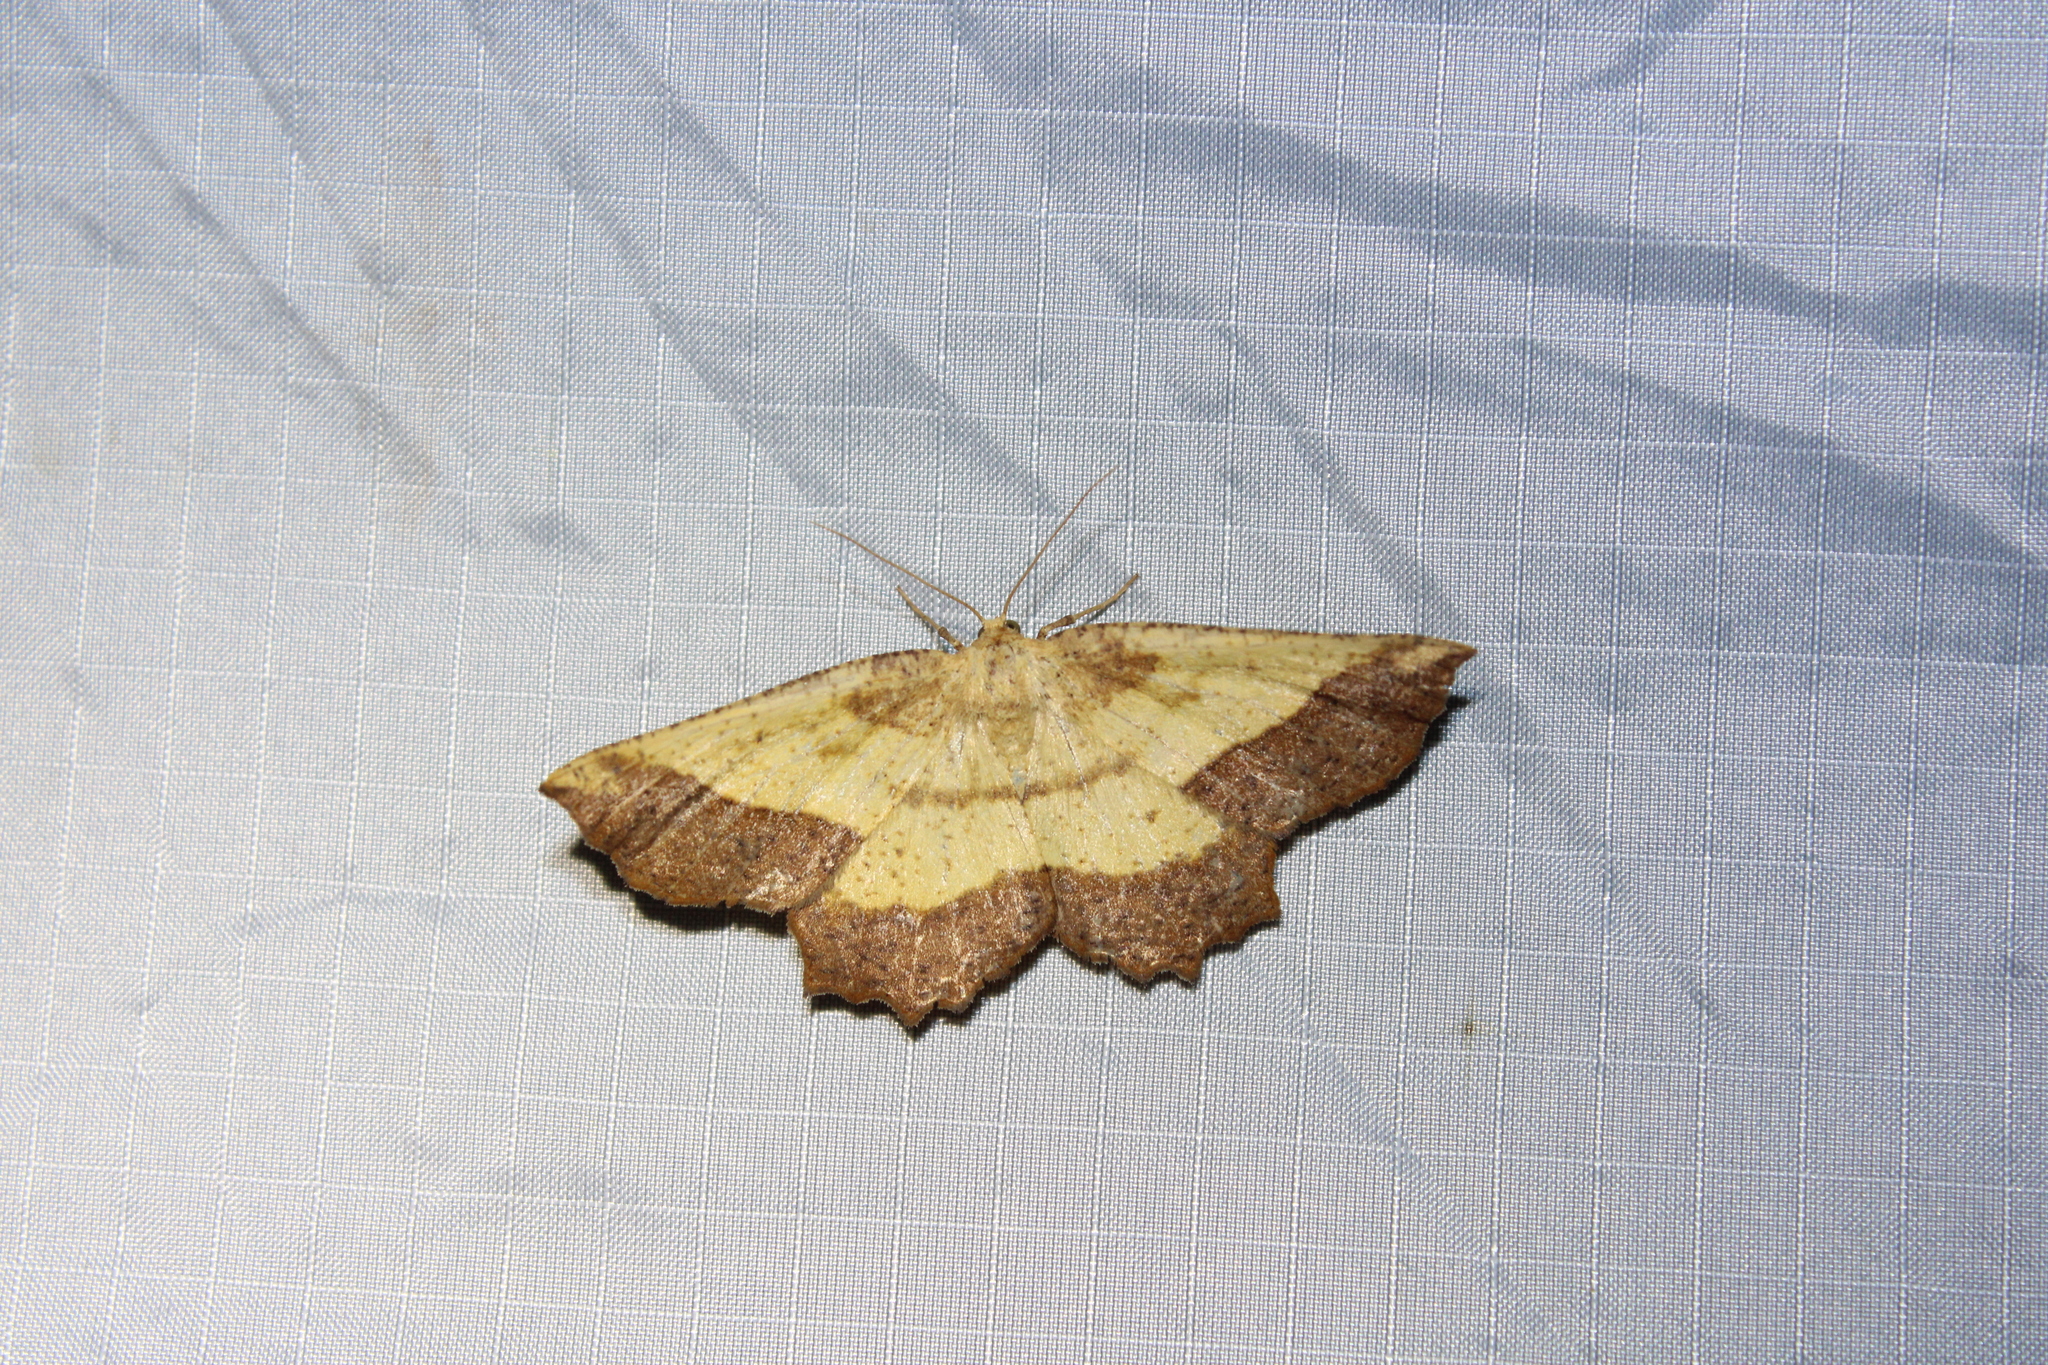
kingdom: Animalia
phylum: Arthropoda
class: Insecta
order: Lepidoptera
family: Geometridae
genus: Euchlaena
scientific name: Euchlaena serrata
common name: Saw wing
